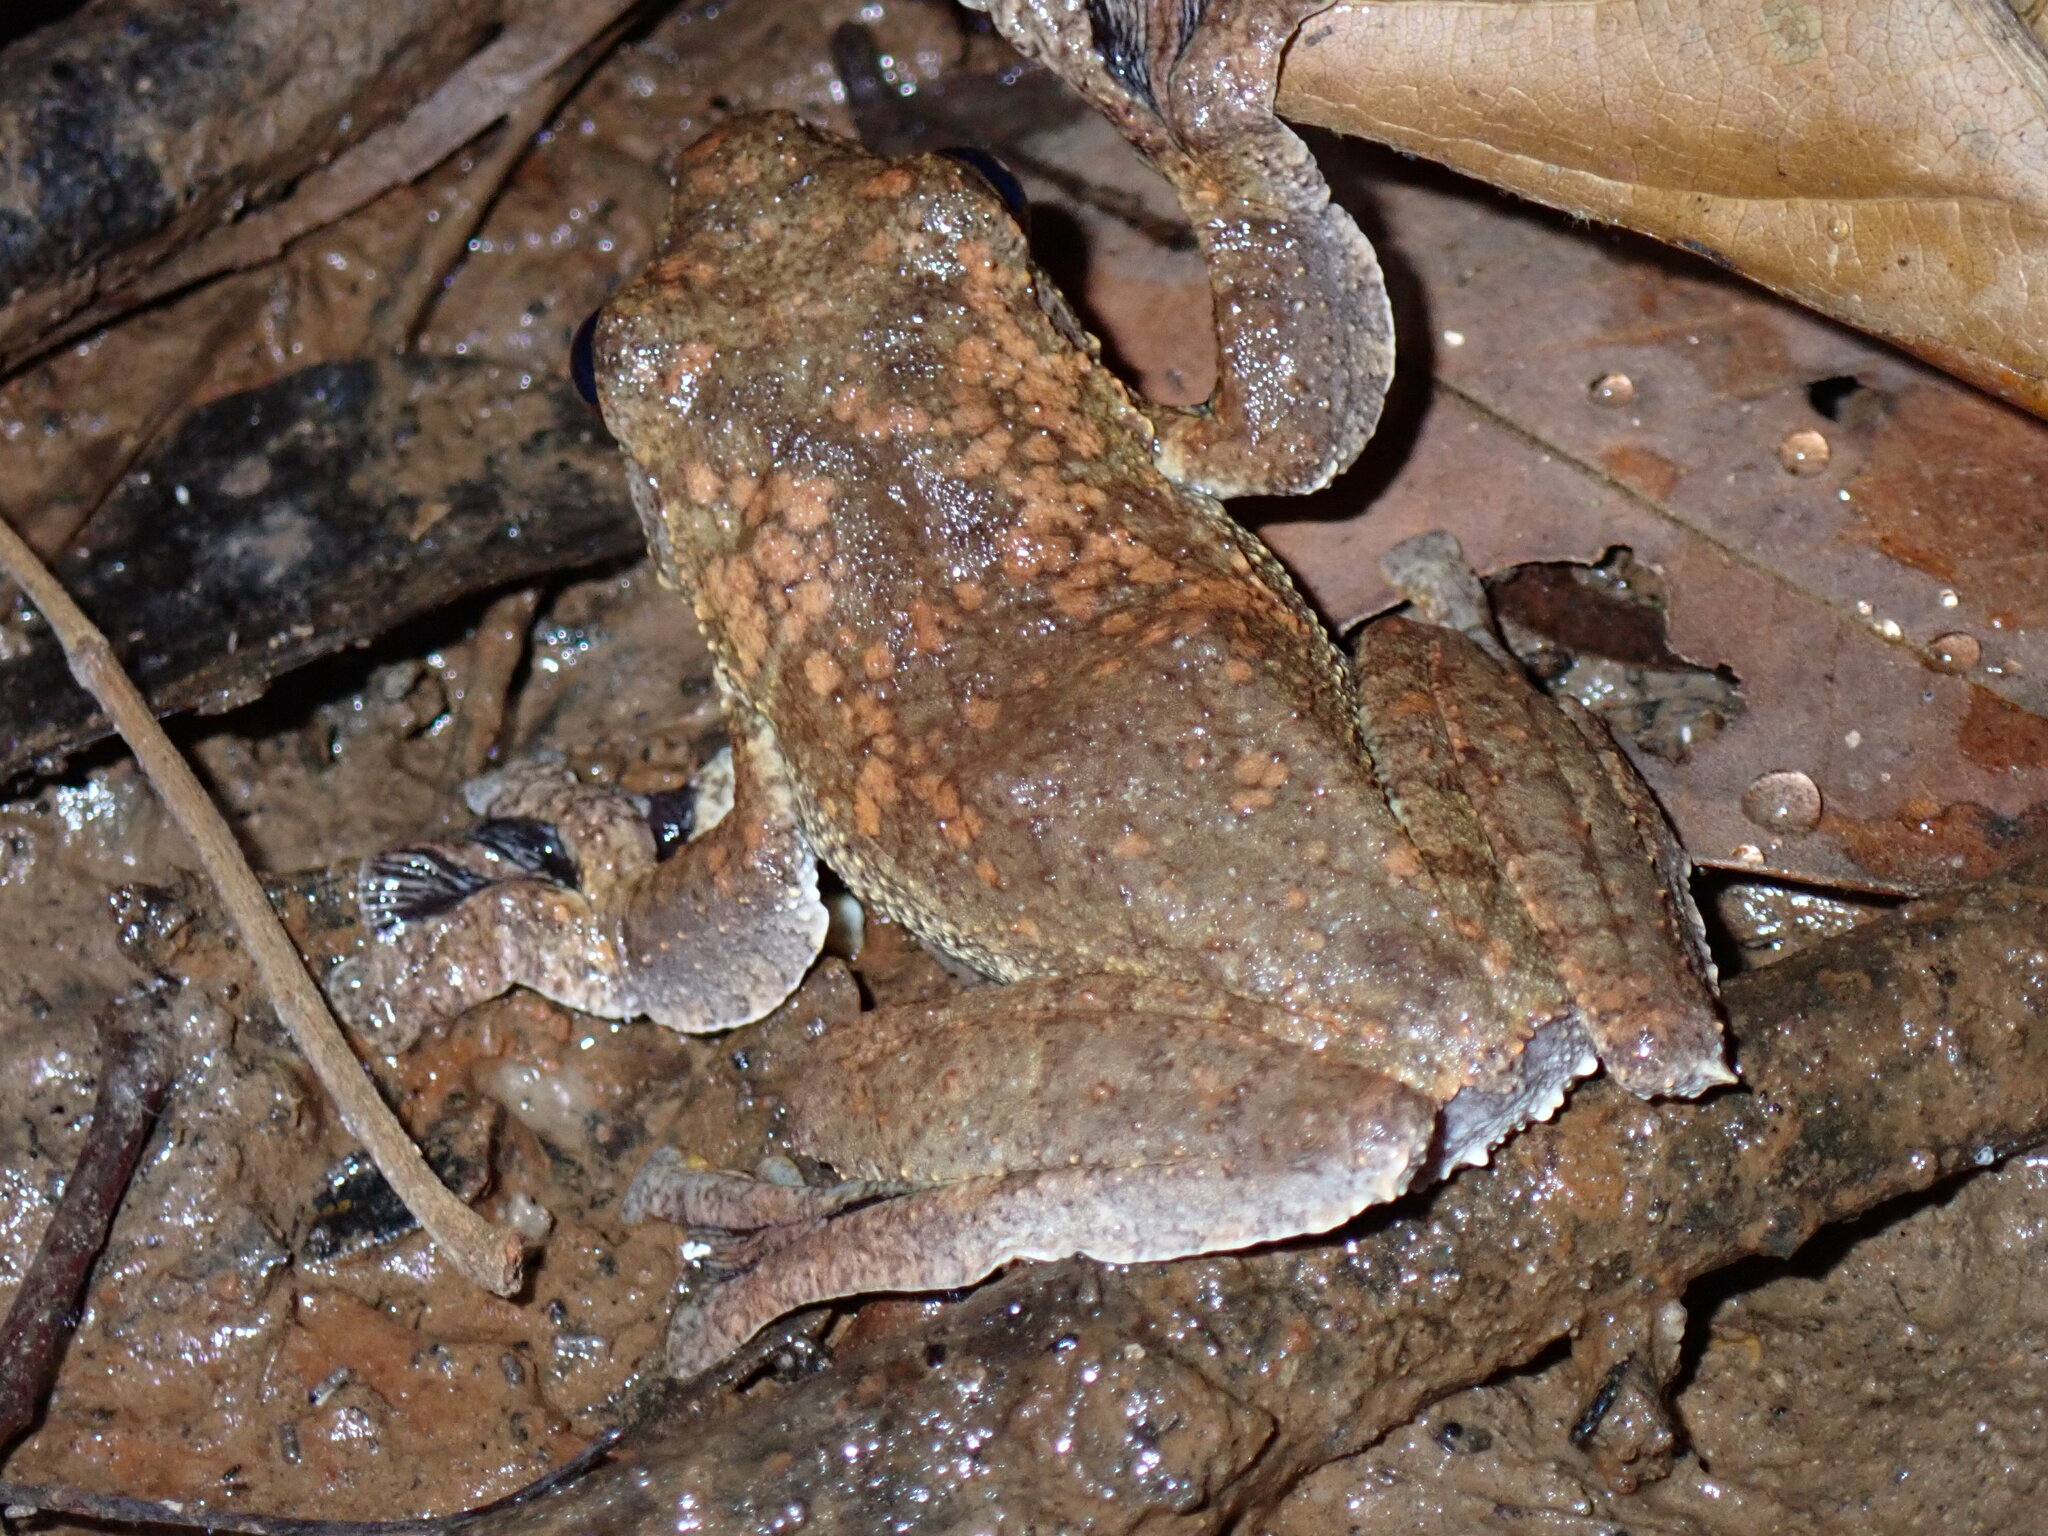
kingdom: Animalia
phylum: Chordata
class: Amphibia
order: Anura
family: Rhacophoridae
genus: Rhacophorus
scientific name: Rhacophorus annamensis
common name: Annam flying frog
